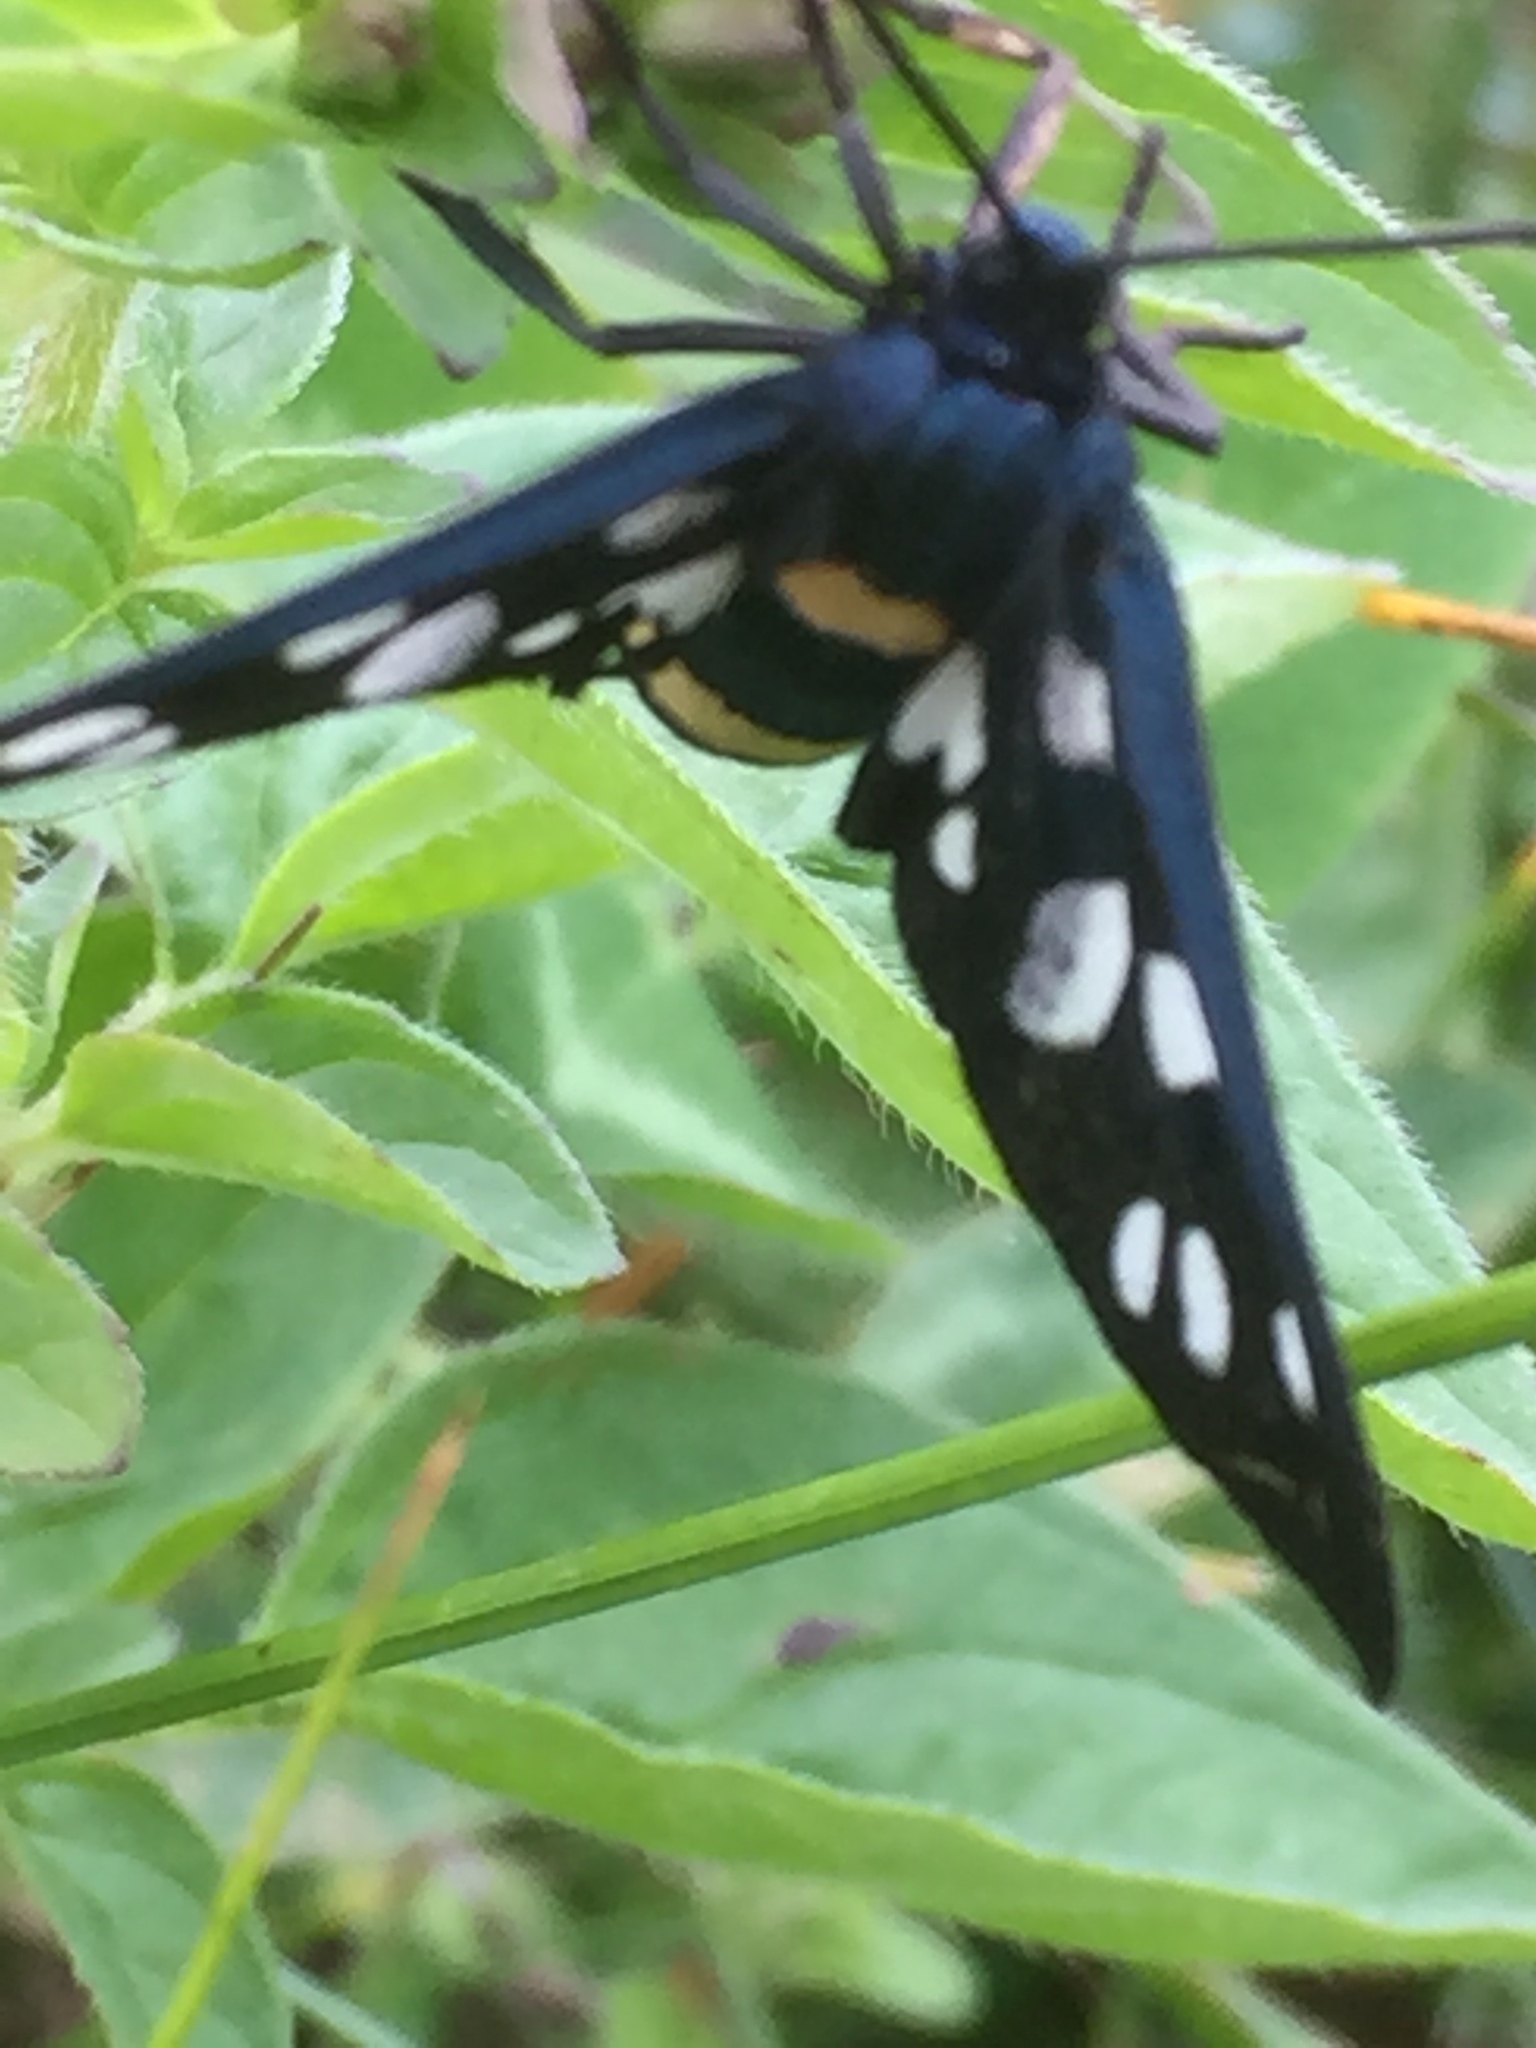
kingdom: Animalia
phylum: Arthropoda
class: Insecta
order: Lepidoptera
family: Erebidae
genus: Amata
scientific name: Amata phegea
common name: Nine-spotted
